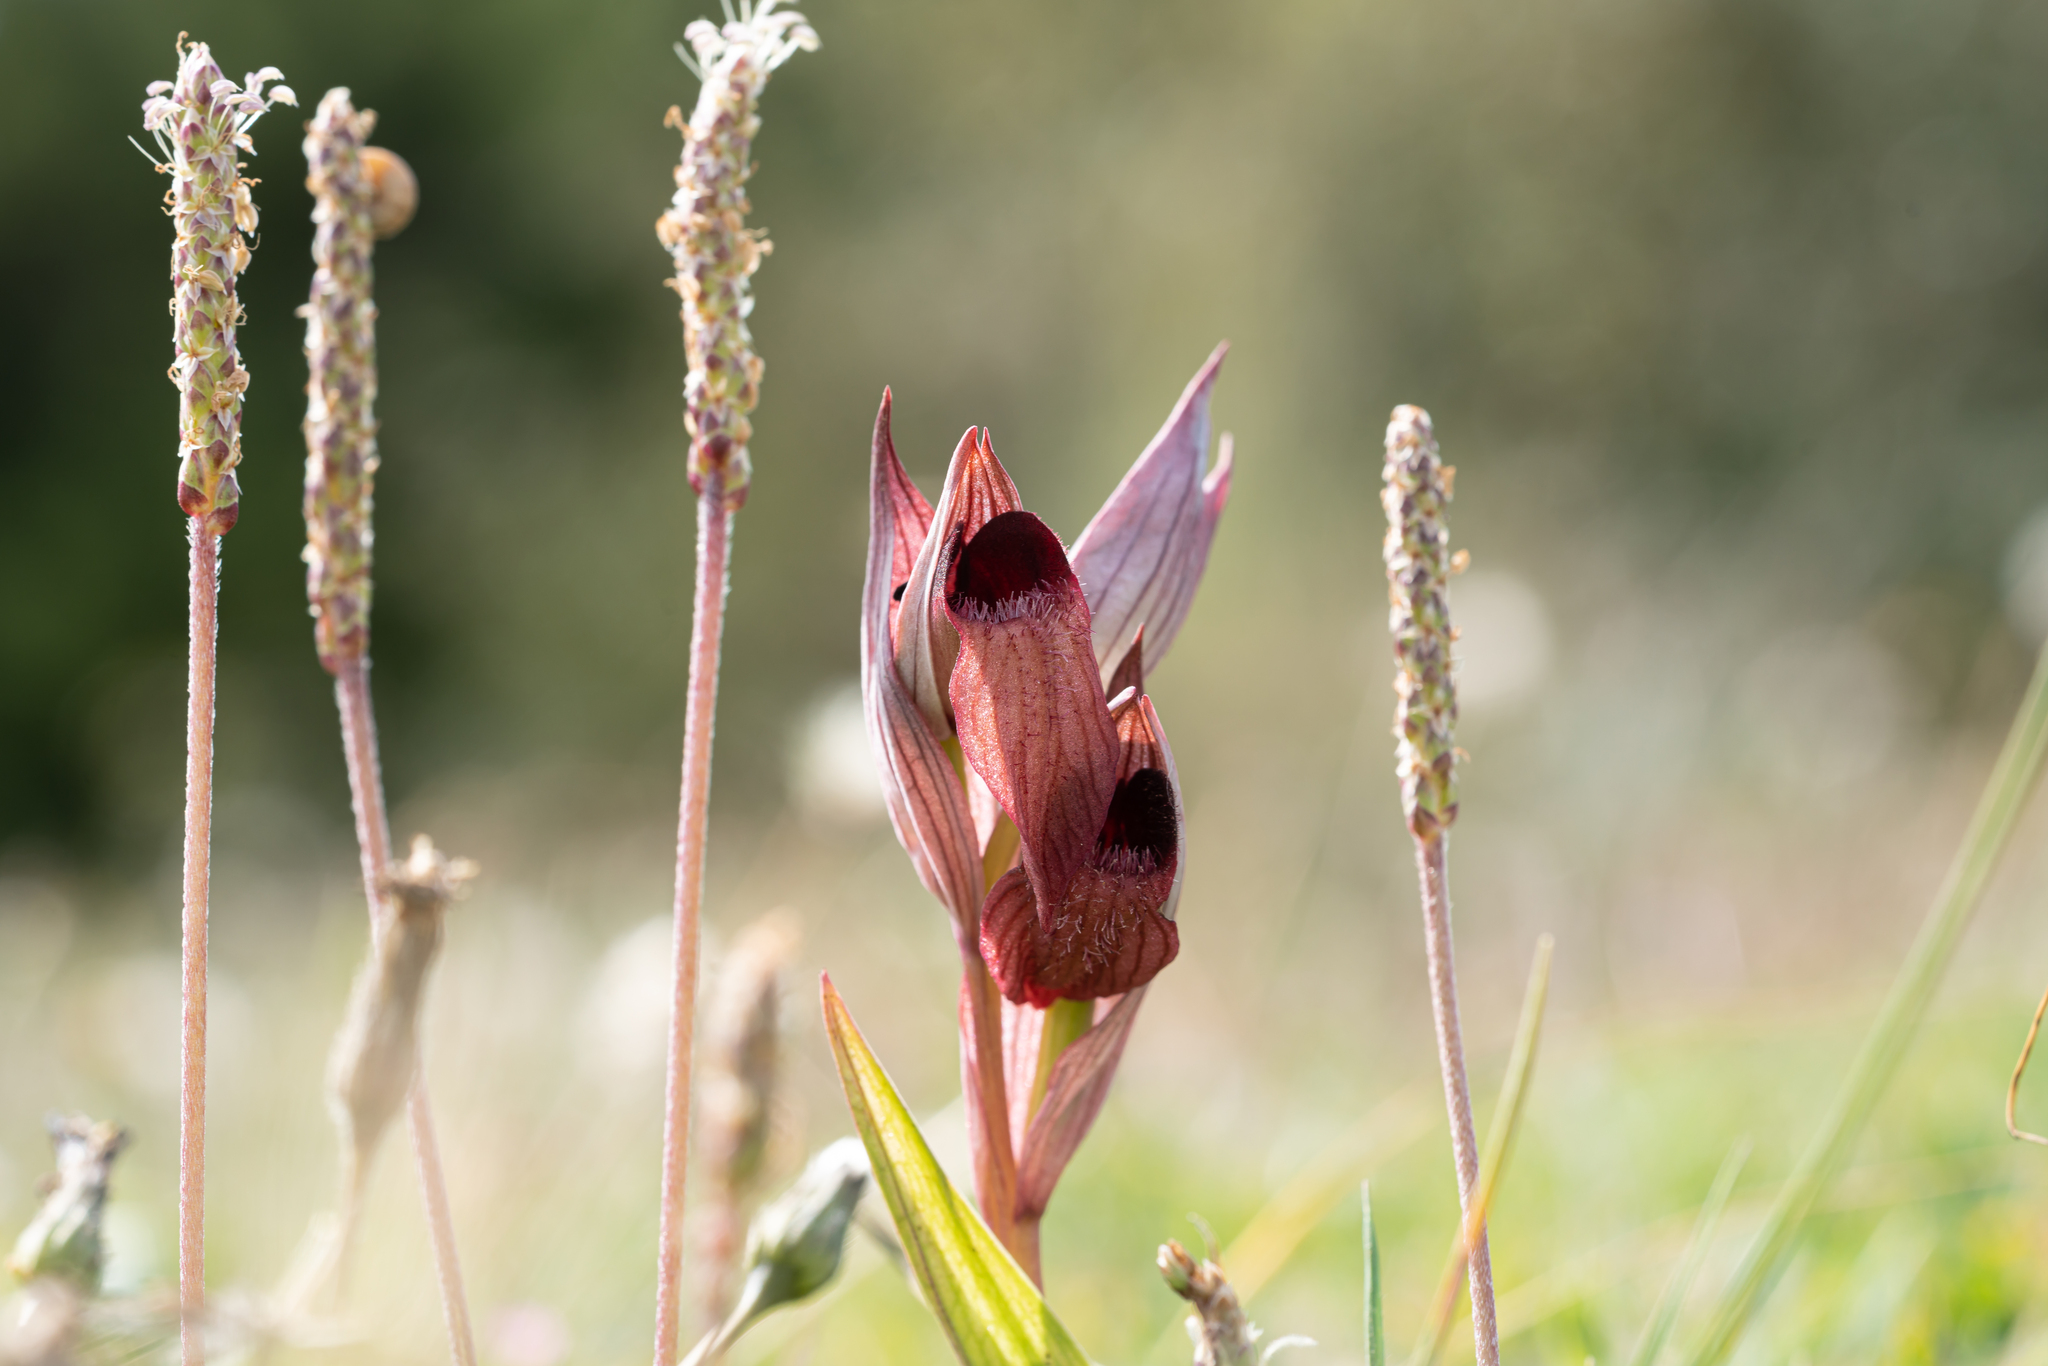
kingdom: Plantae
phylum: Tracheophyta
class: Liliopsida
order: Asparagales
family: Orchidaceae
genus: Serapias
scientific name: Serapias orientalis
